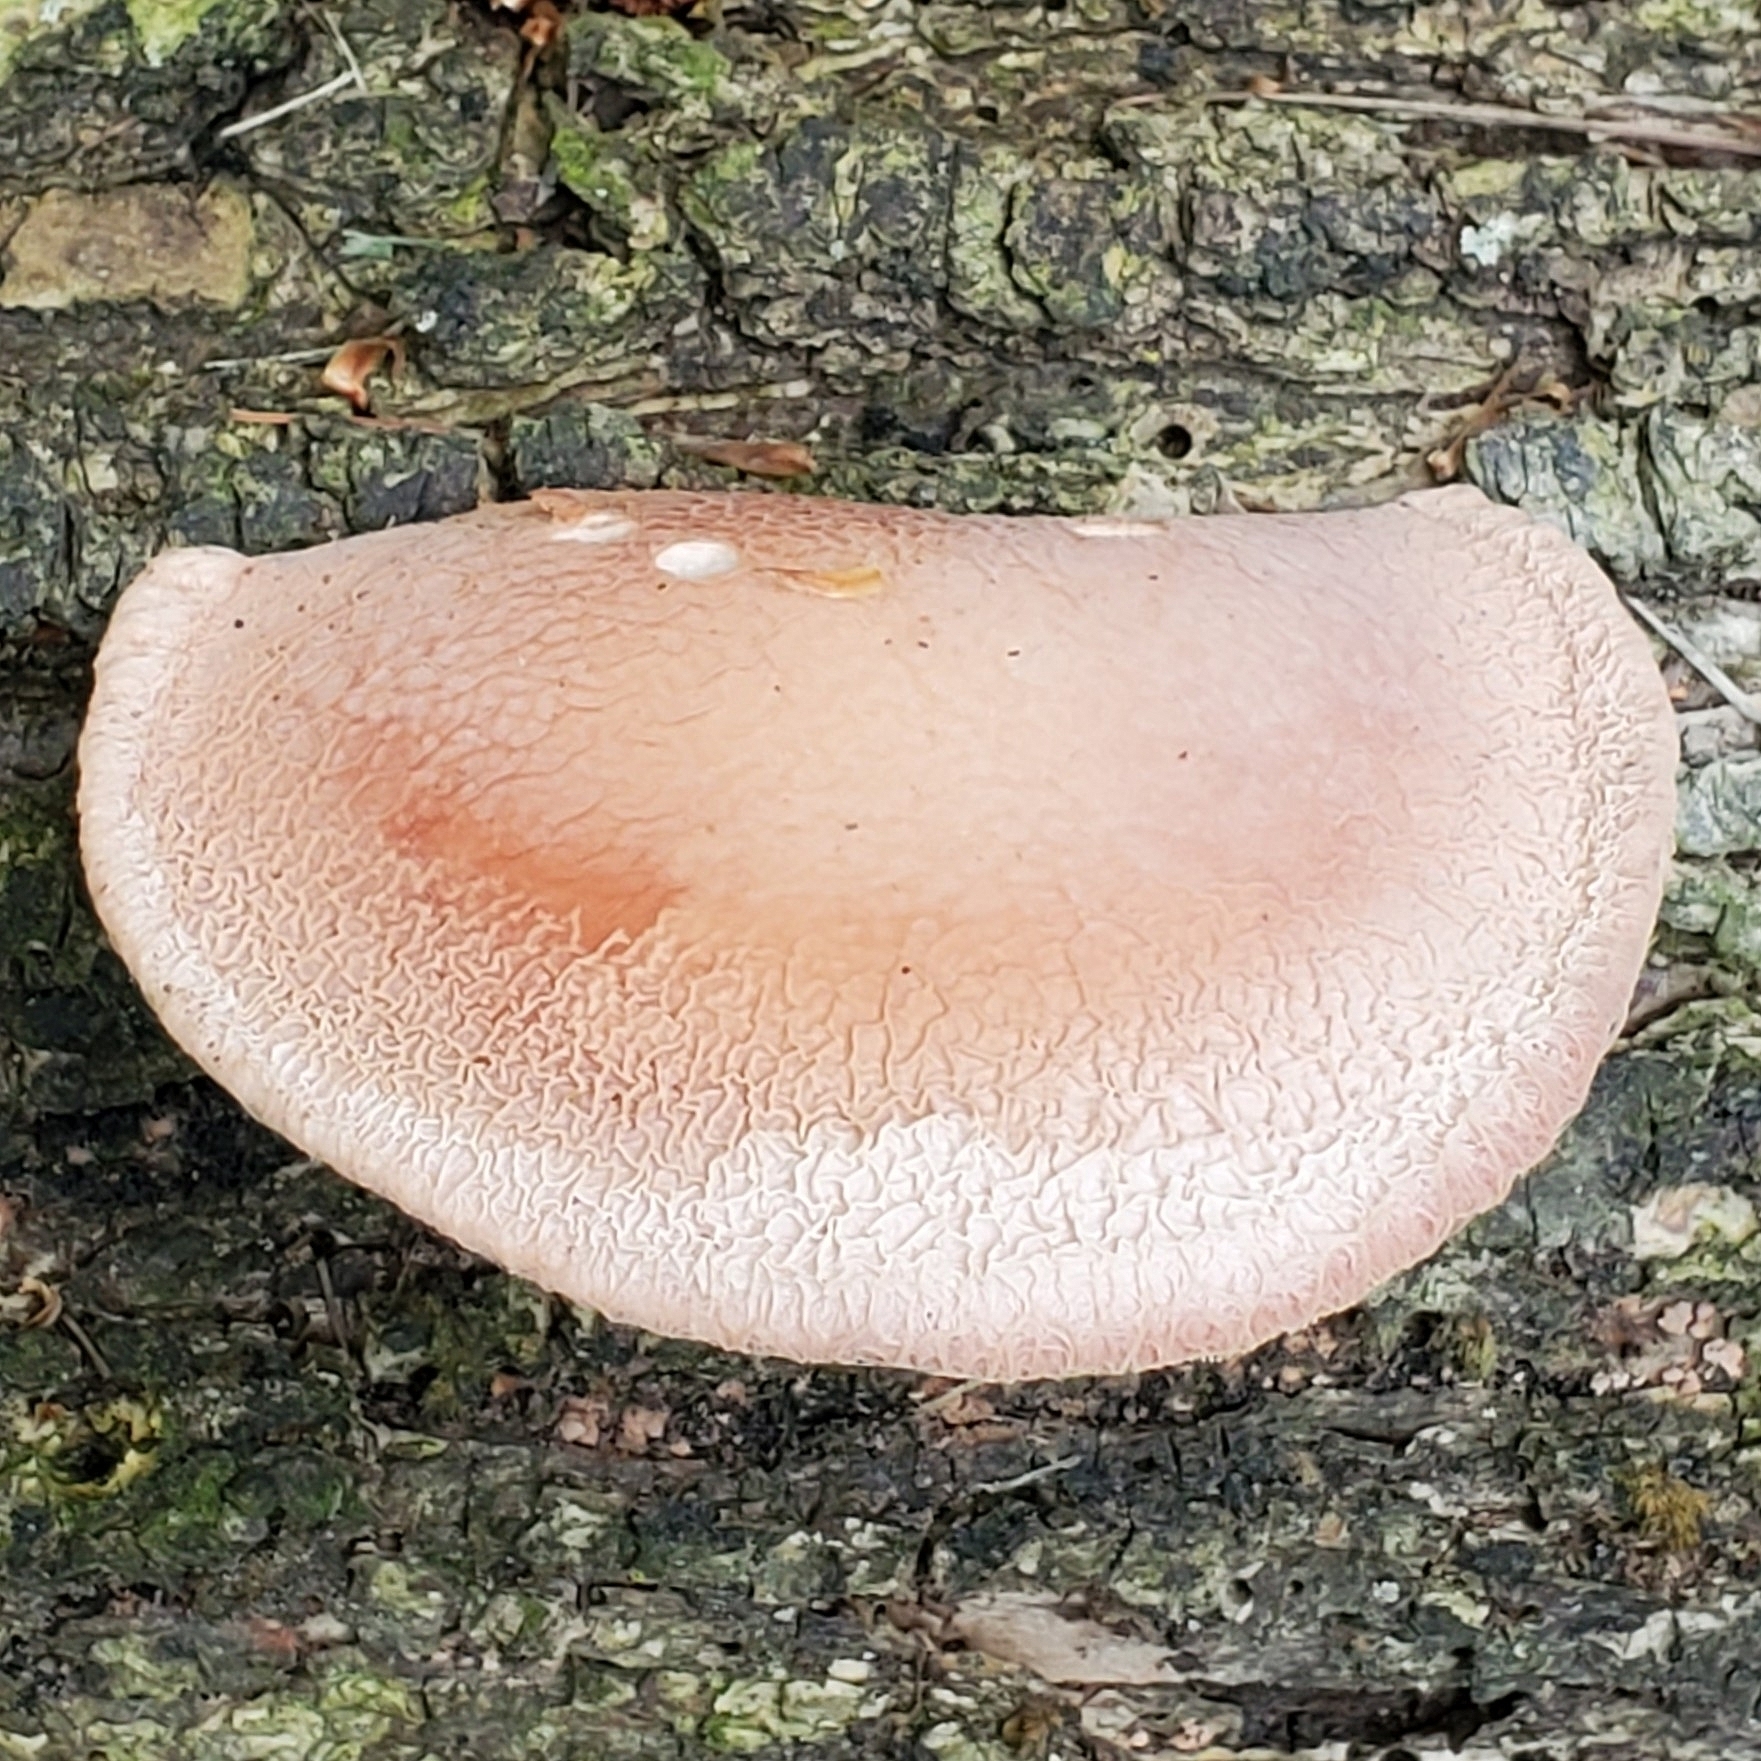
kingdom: Fungi
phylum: Basidiomycota
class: Agaricomycetes
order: Agaricales
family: Physalacriaceae
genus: Rhodotus
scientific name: Rhodotus palmatus
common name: Wrinkled peach
